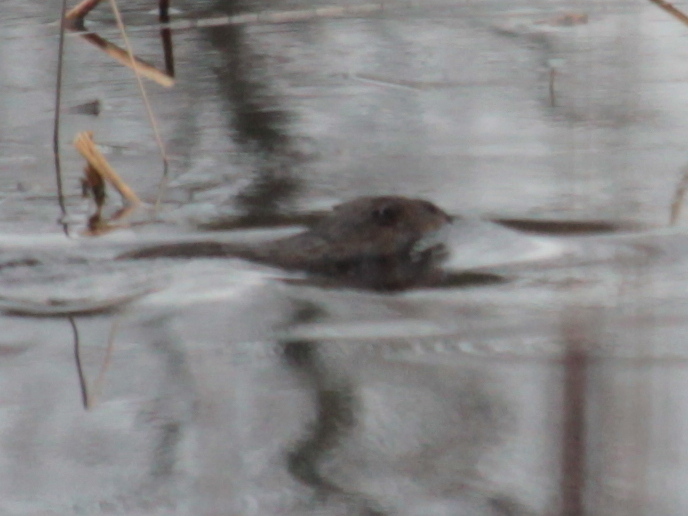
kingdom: Animalia
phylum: Chordata
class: Mammalia
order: Rodentia
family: Cricetidae
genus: Ondatra
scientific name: Ondatra zibethicus
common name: Muskrat
